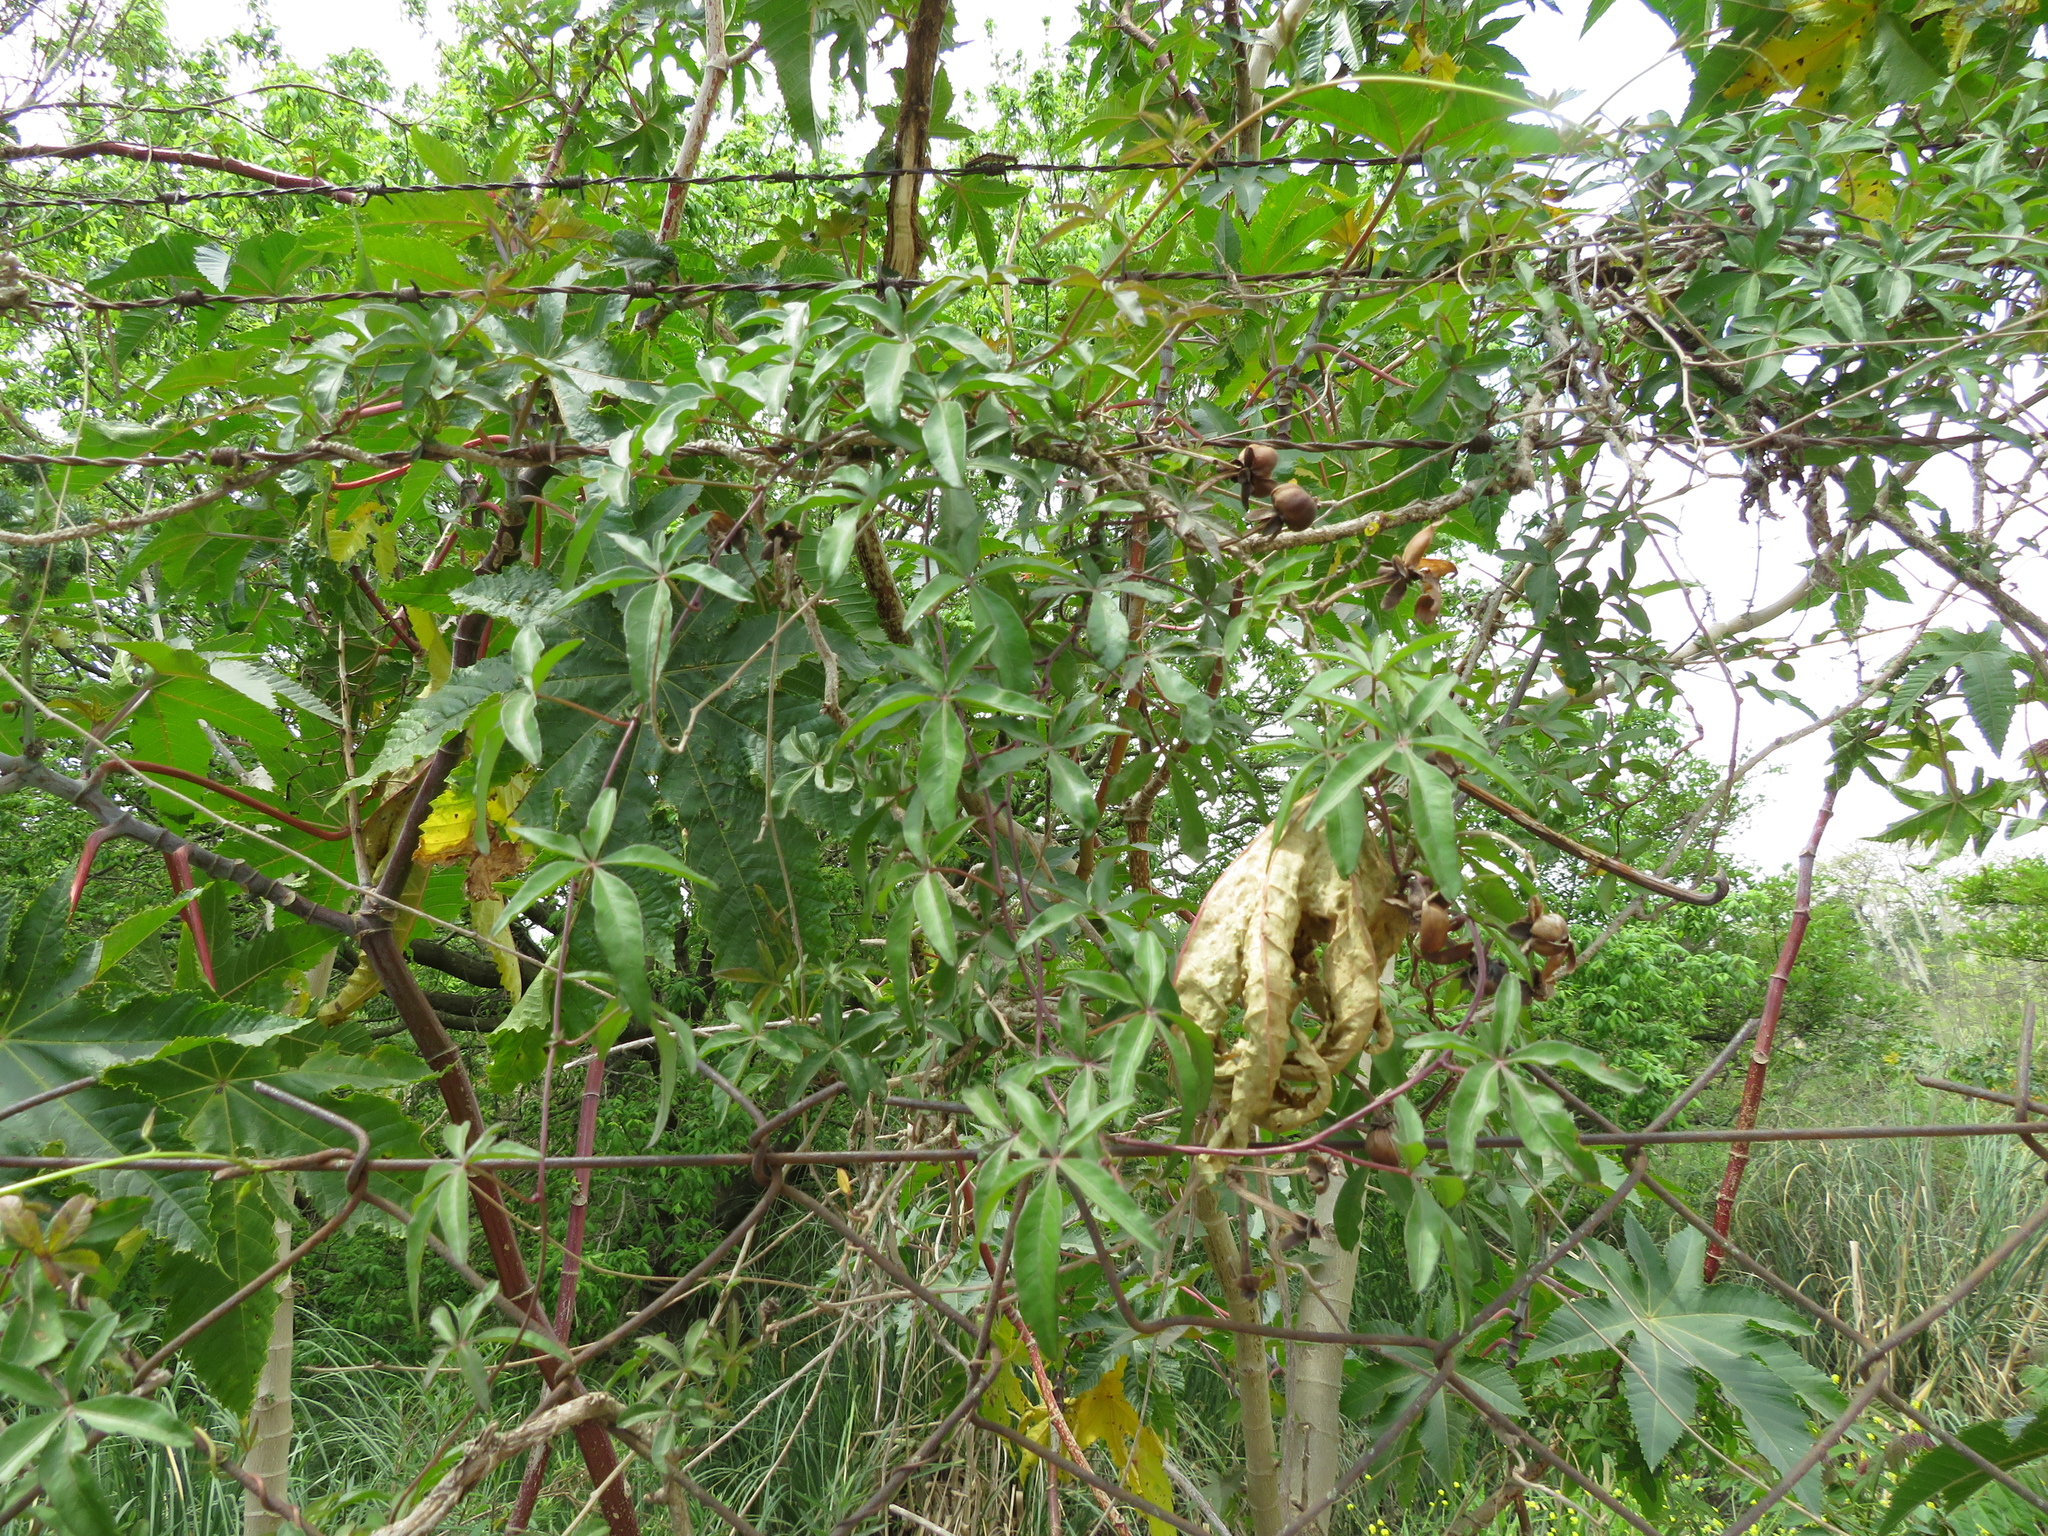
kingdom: Plantae
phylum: Tracheophyta
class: Magnoliopsida
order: Solanales
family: Convolvulaceae
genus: Ipomoea
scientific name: Ipomoea cairica
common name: Mile a minute vine
